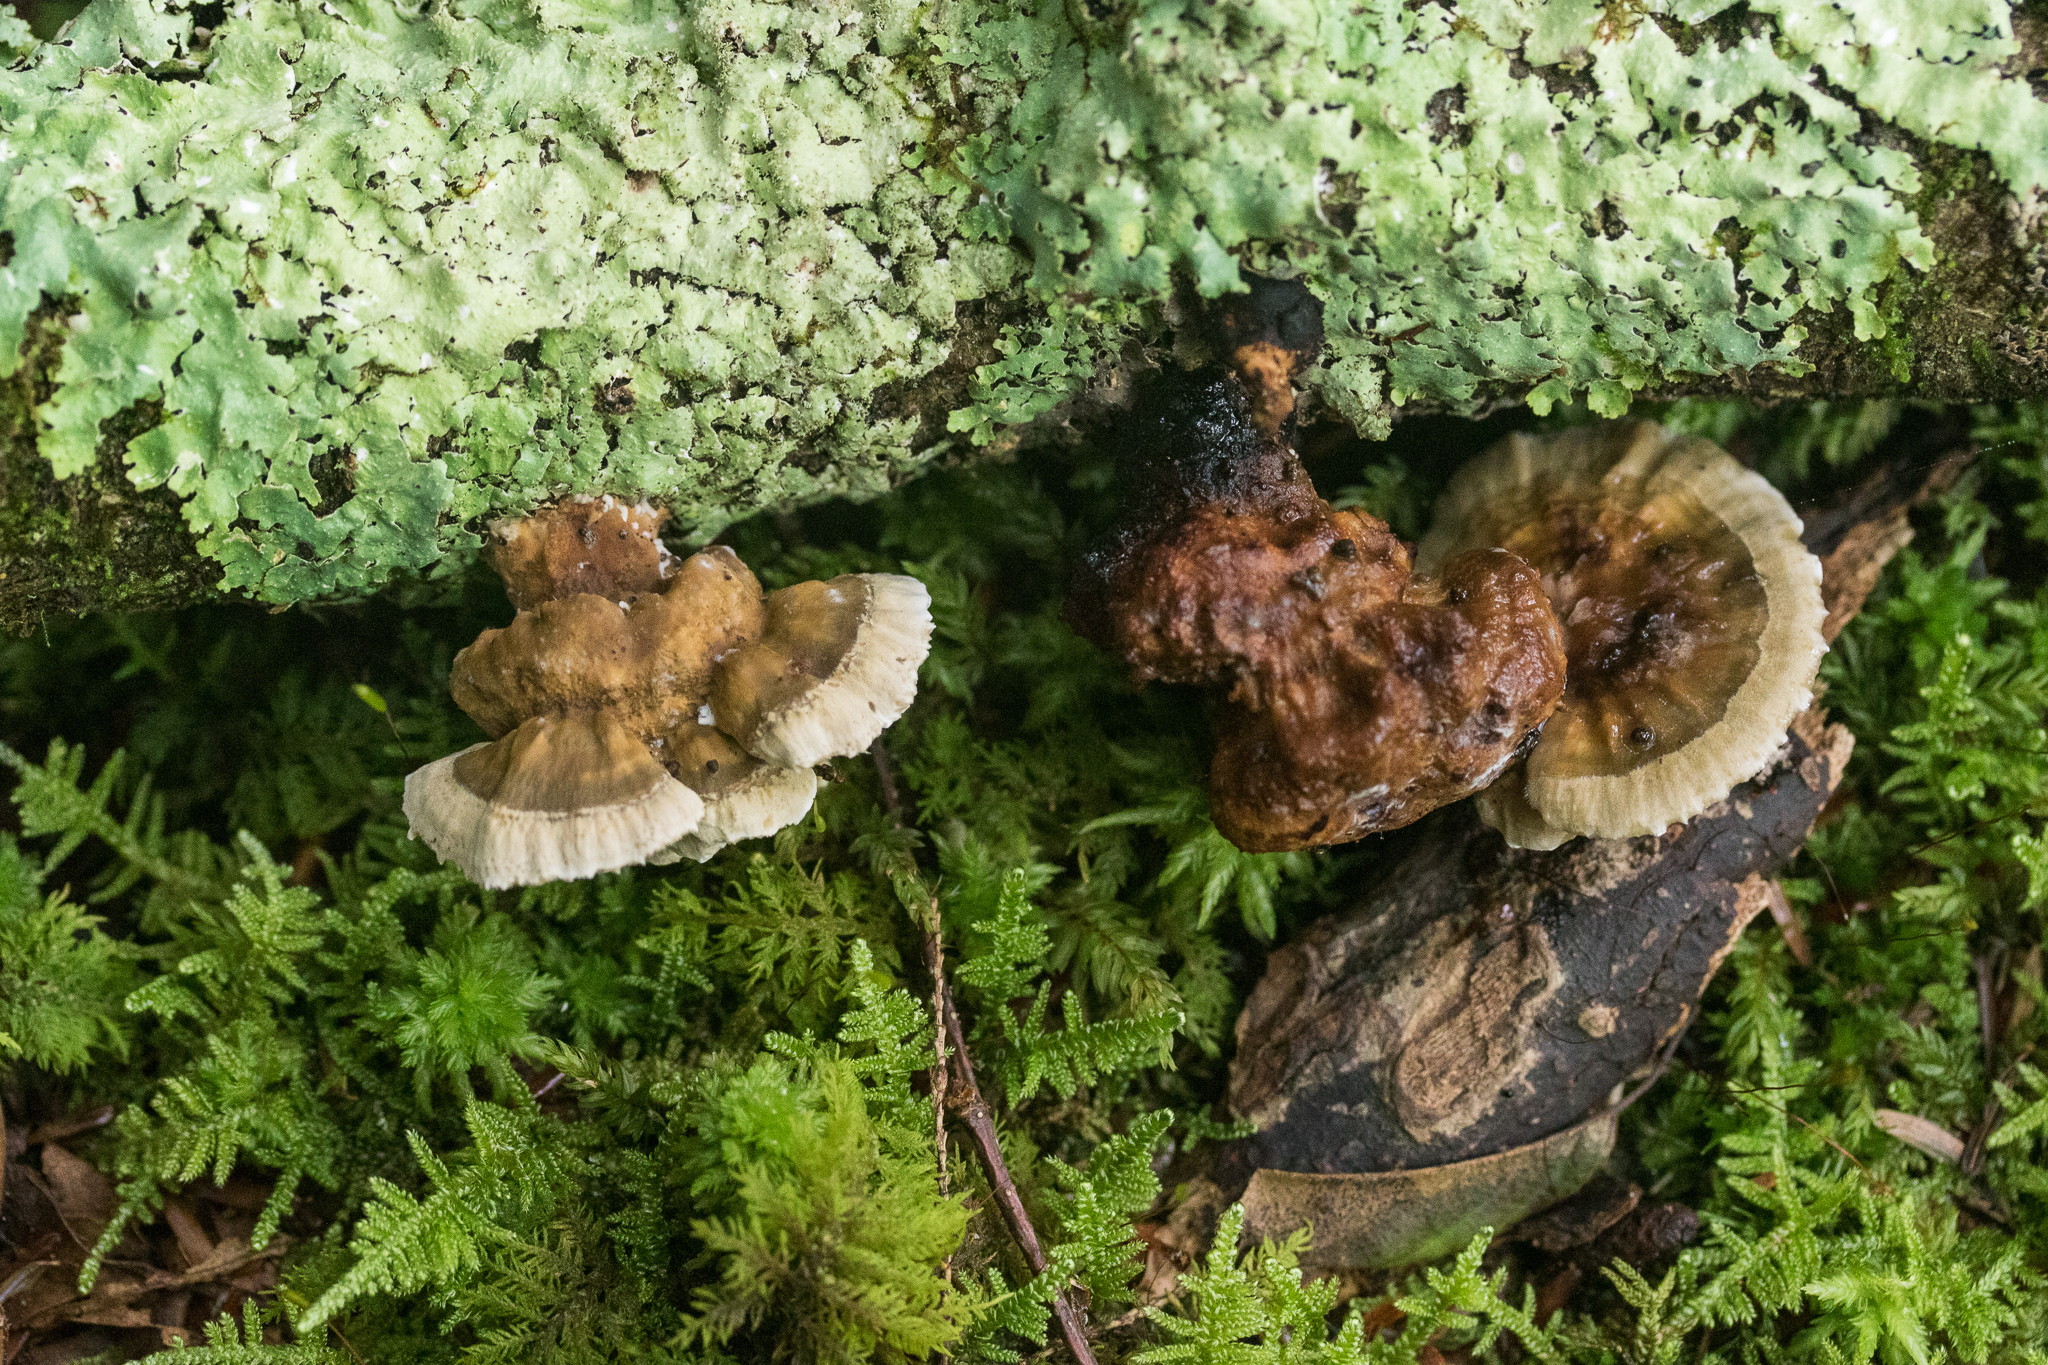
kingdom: Fungi
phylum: Basidiomycota
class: Agaricomycetes
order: Polyporales
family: Fomitopsidaceae
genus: Fomitopsis
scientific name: Fomitopsis
